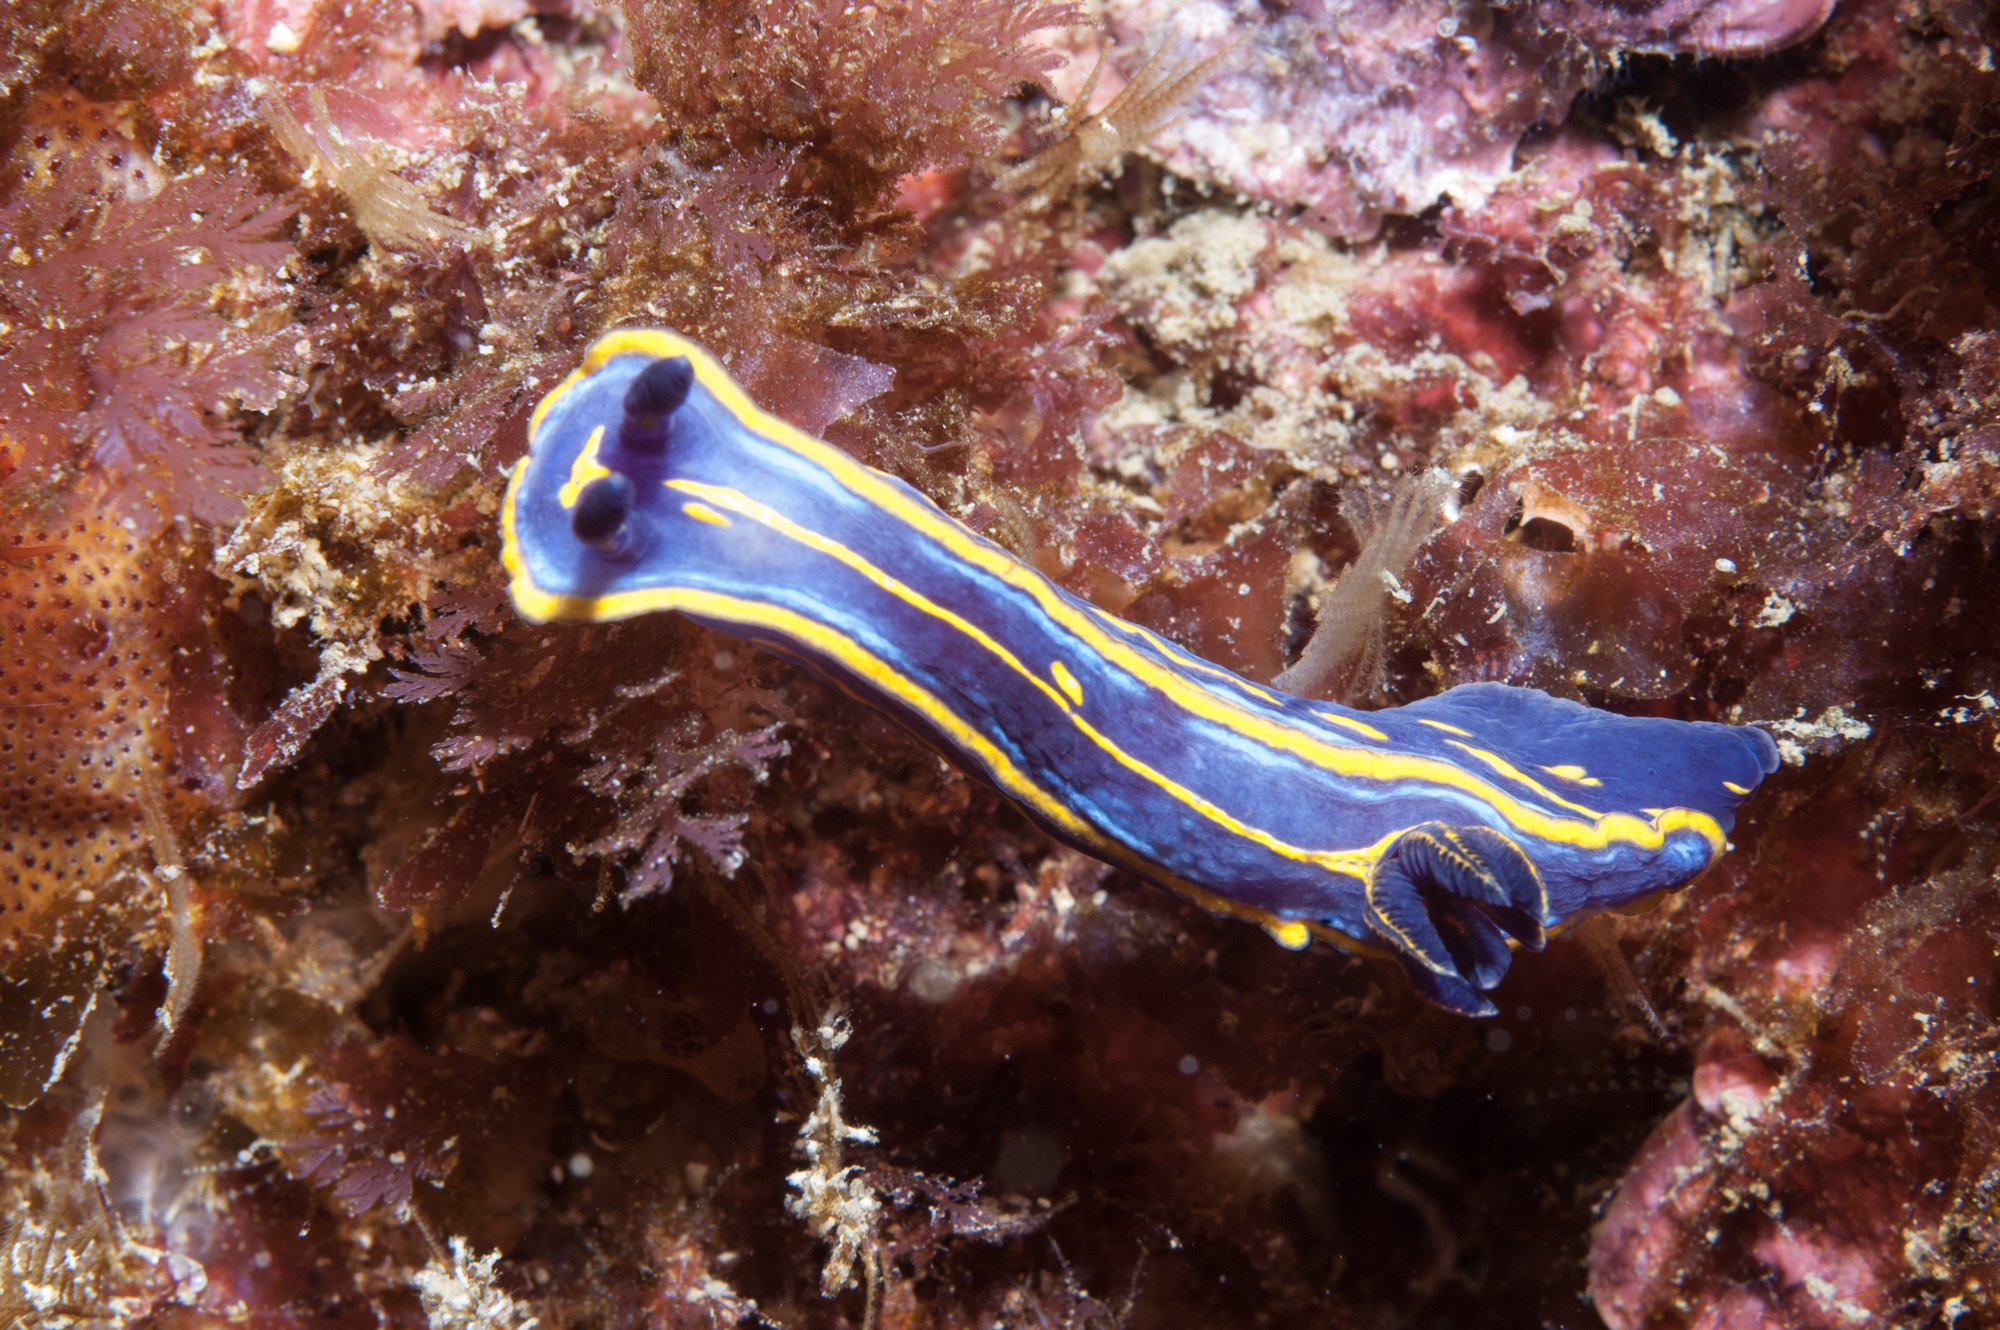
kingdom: Animalia
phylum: Mollusca
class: Gastropoda
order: Nudibranchia
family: Chromodorididae
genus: Felimare
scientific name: Felimare fontandraui
